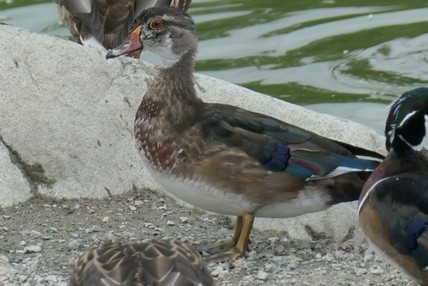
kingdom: Animalia
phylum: Chordata
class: Aves
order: Anseriformes
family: Anatidae
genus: Aix
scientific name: Aix sponsa
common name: Wood duck
